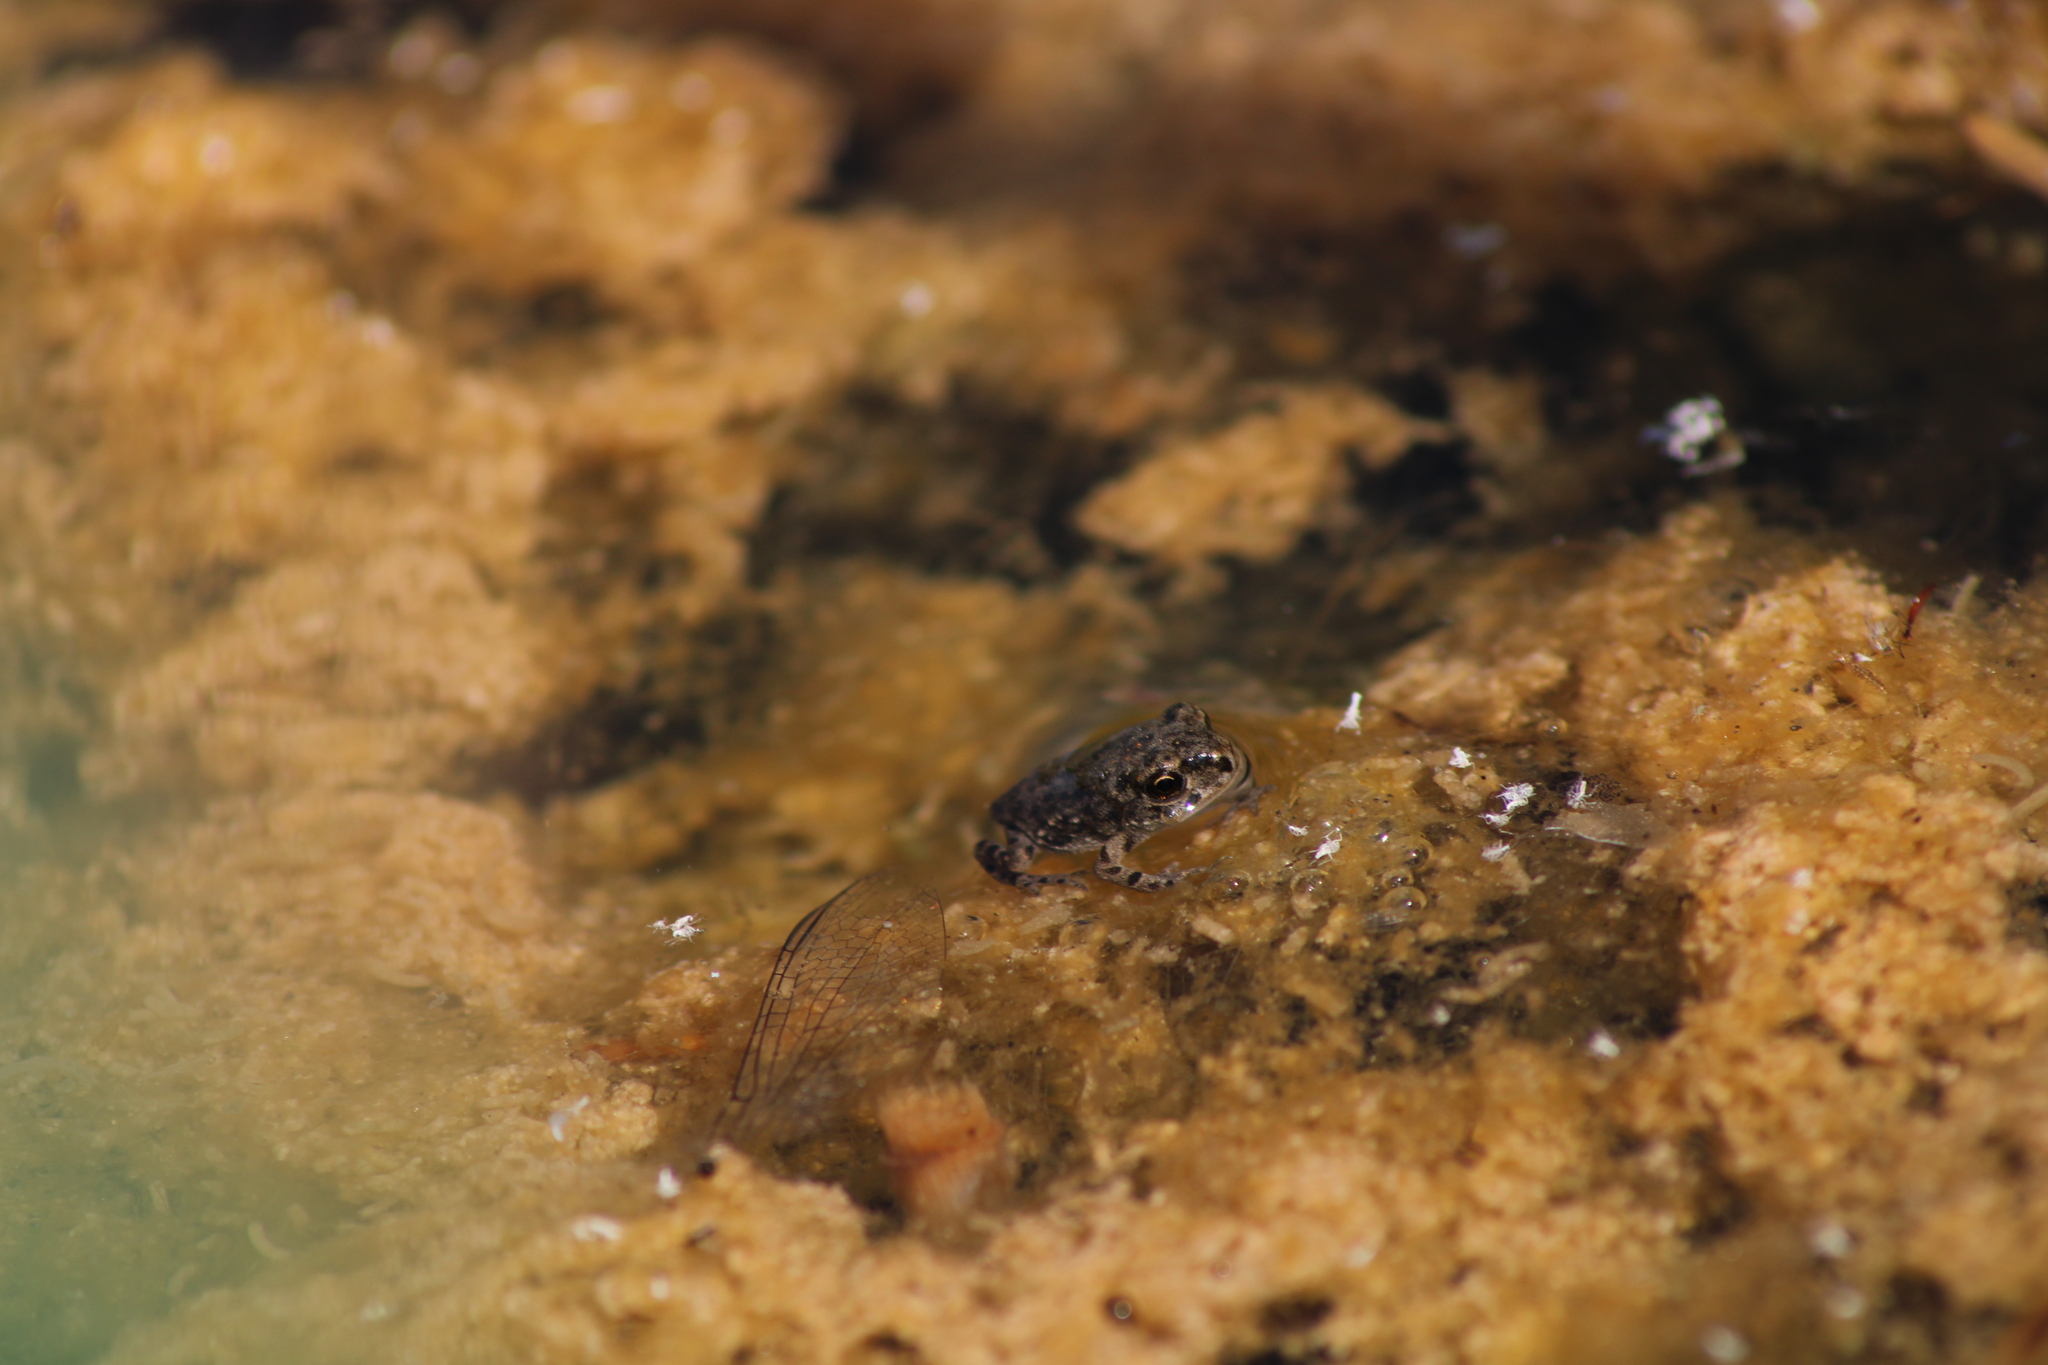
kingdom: Animalia
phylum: Chordata
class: Amphibia
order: Anura
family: Bufonidae
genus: Bufotes
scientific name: Bufotes viridis
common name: European green toad
